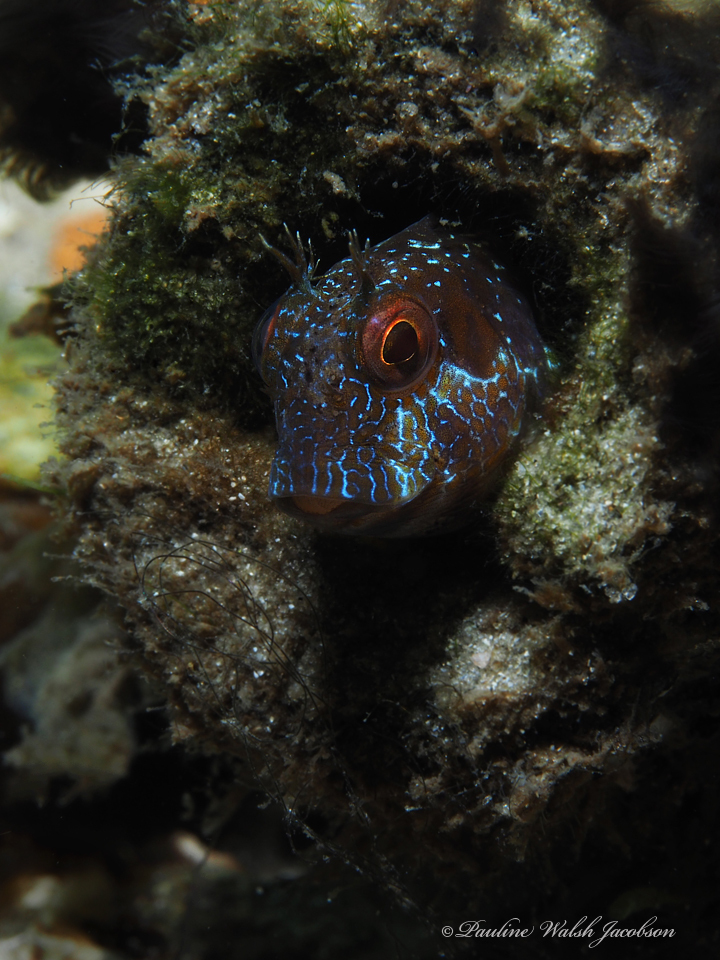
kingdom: Animalia
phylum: Chordata
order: Perciformes
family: Blenniidae
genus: Parablennius
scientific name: Parablennius marmoreus
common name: Seaweed blenny
